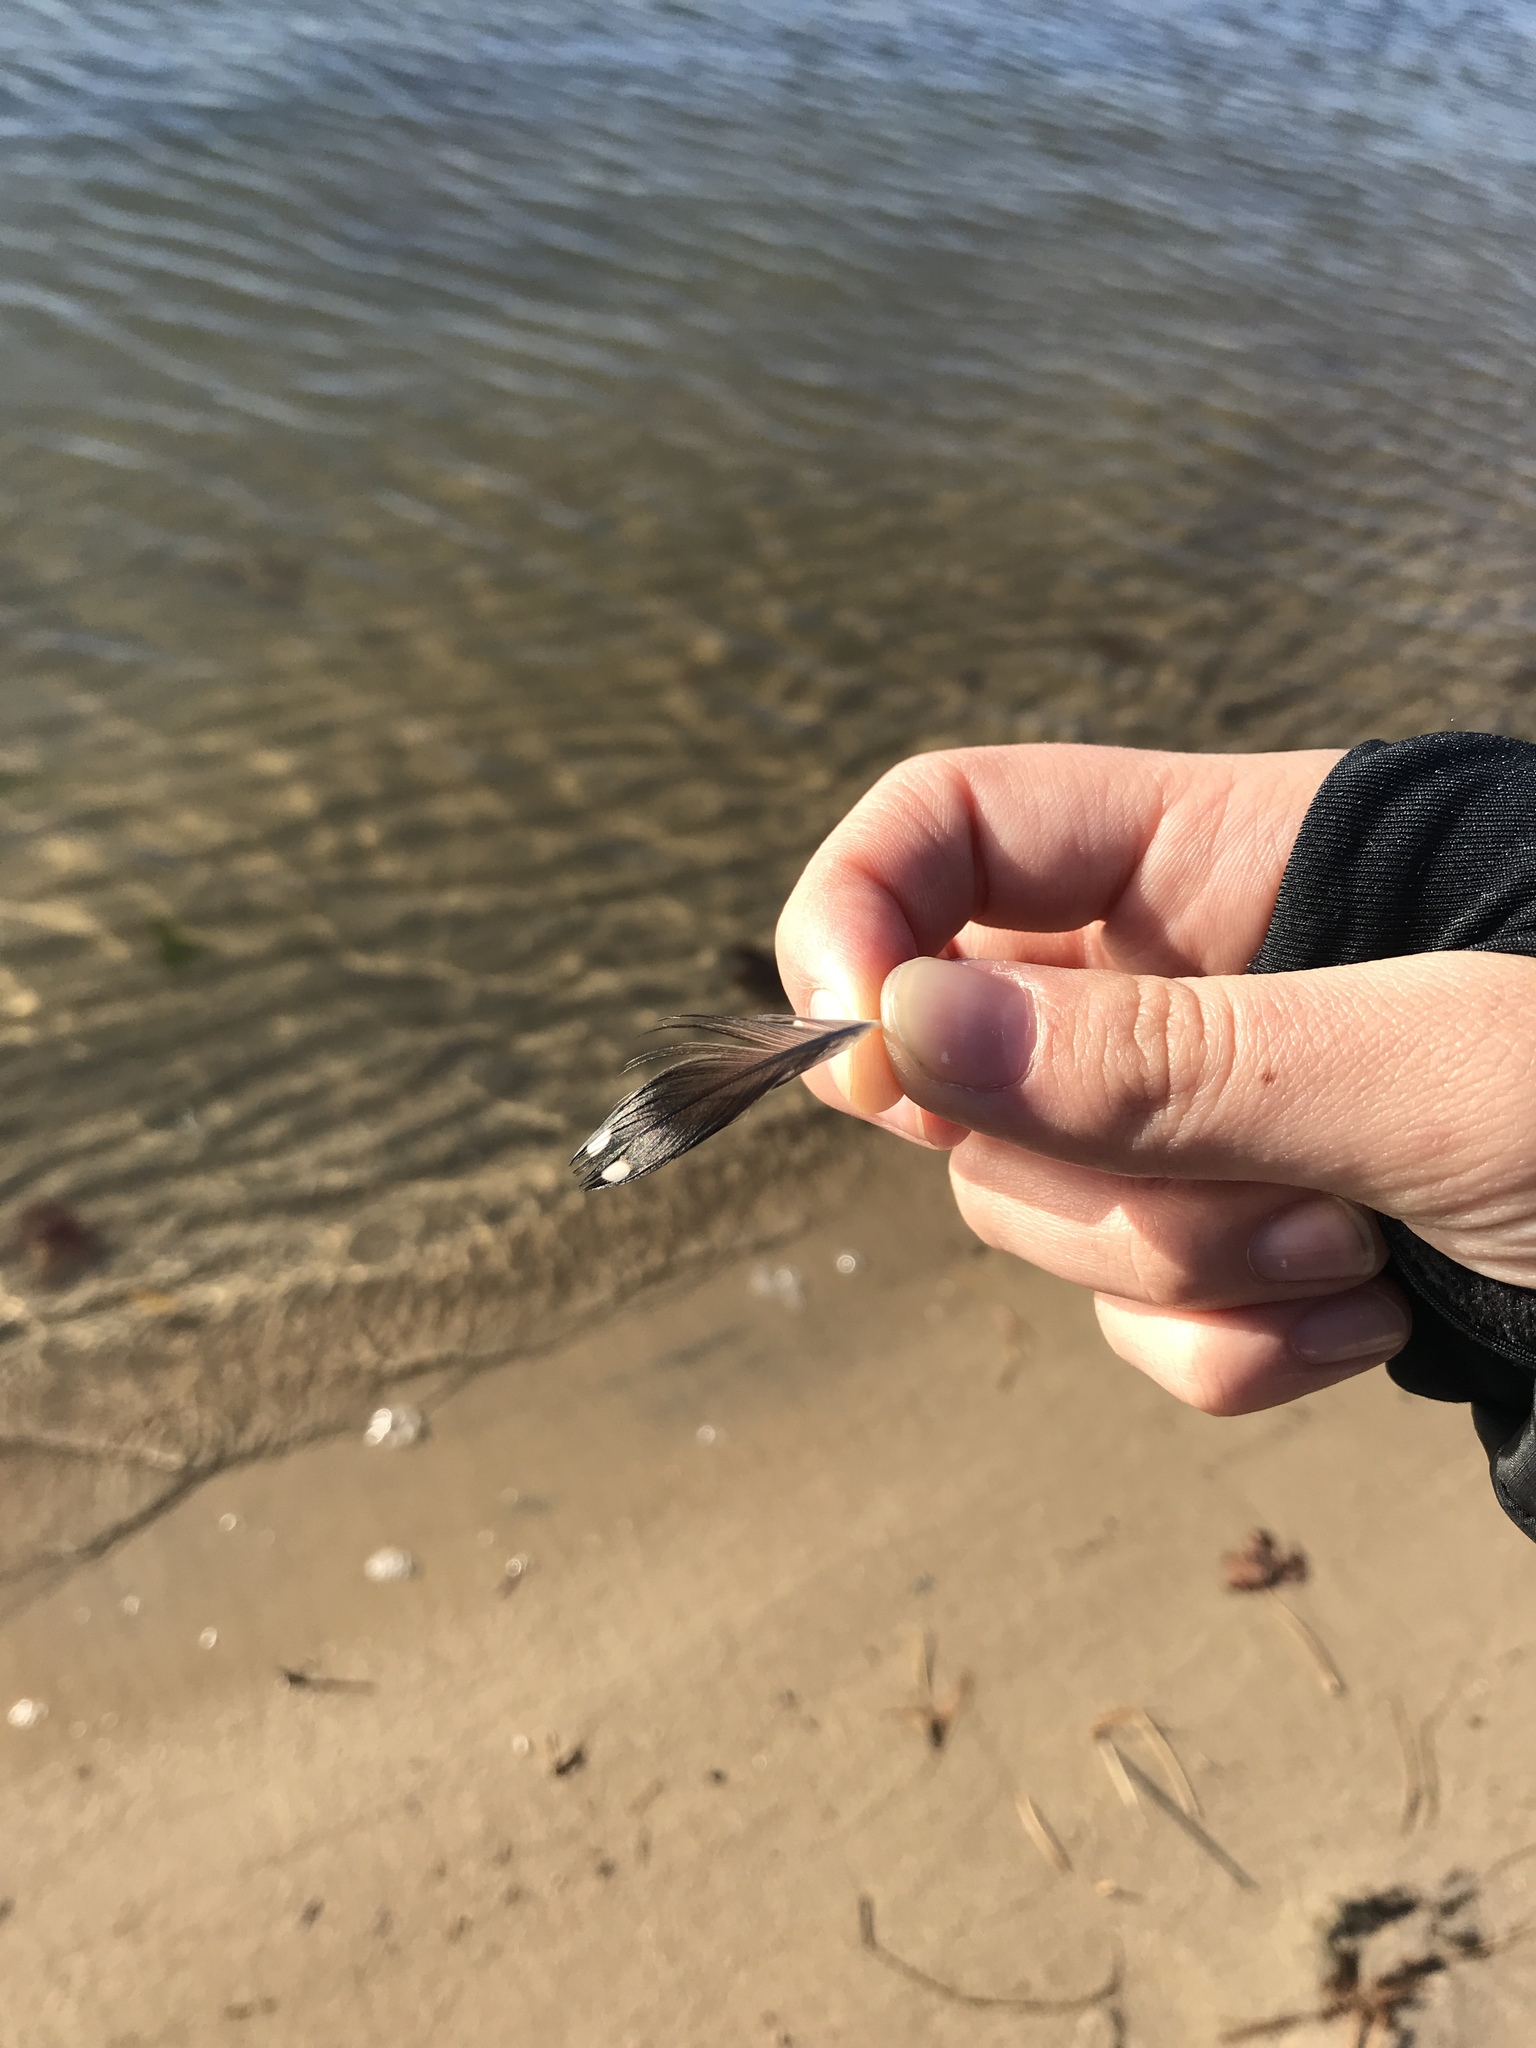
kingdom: Animalia
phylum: Chordata
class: Aves
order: Gaviiformes
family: Gaviidae
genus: Gavia
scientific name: Gavia immer
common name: Common loon
